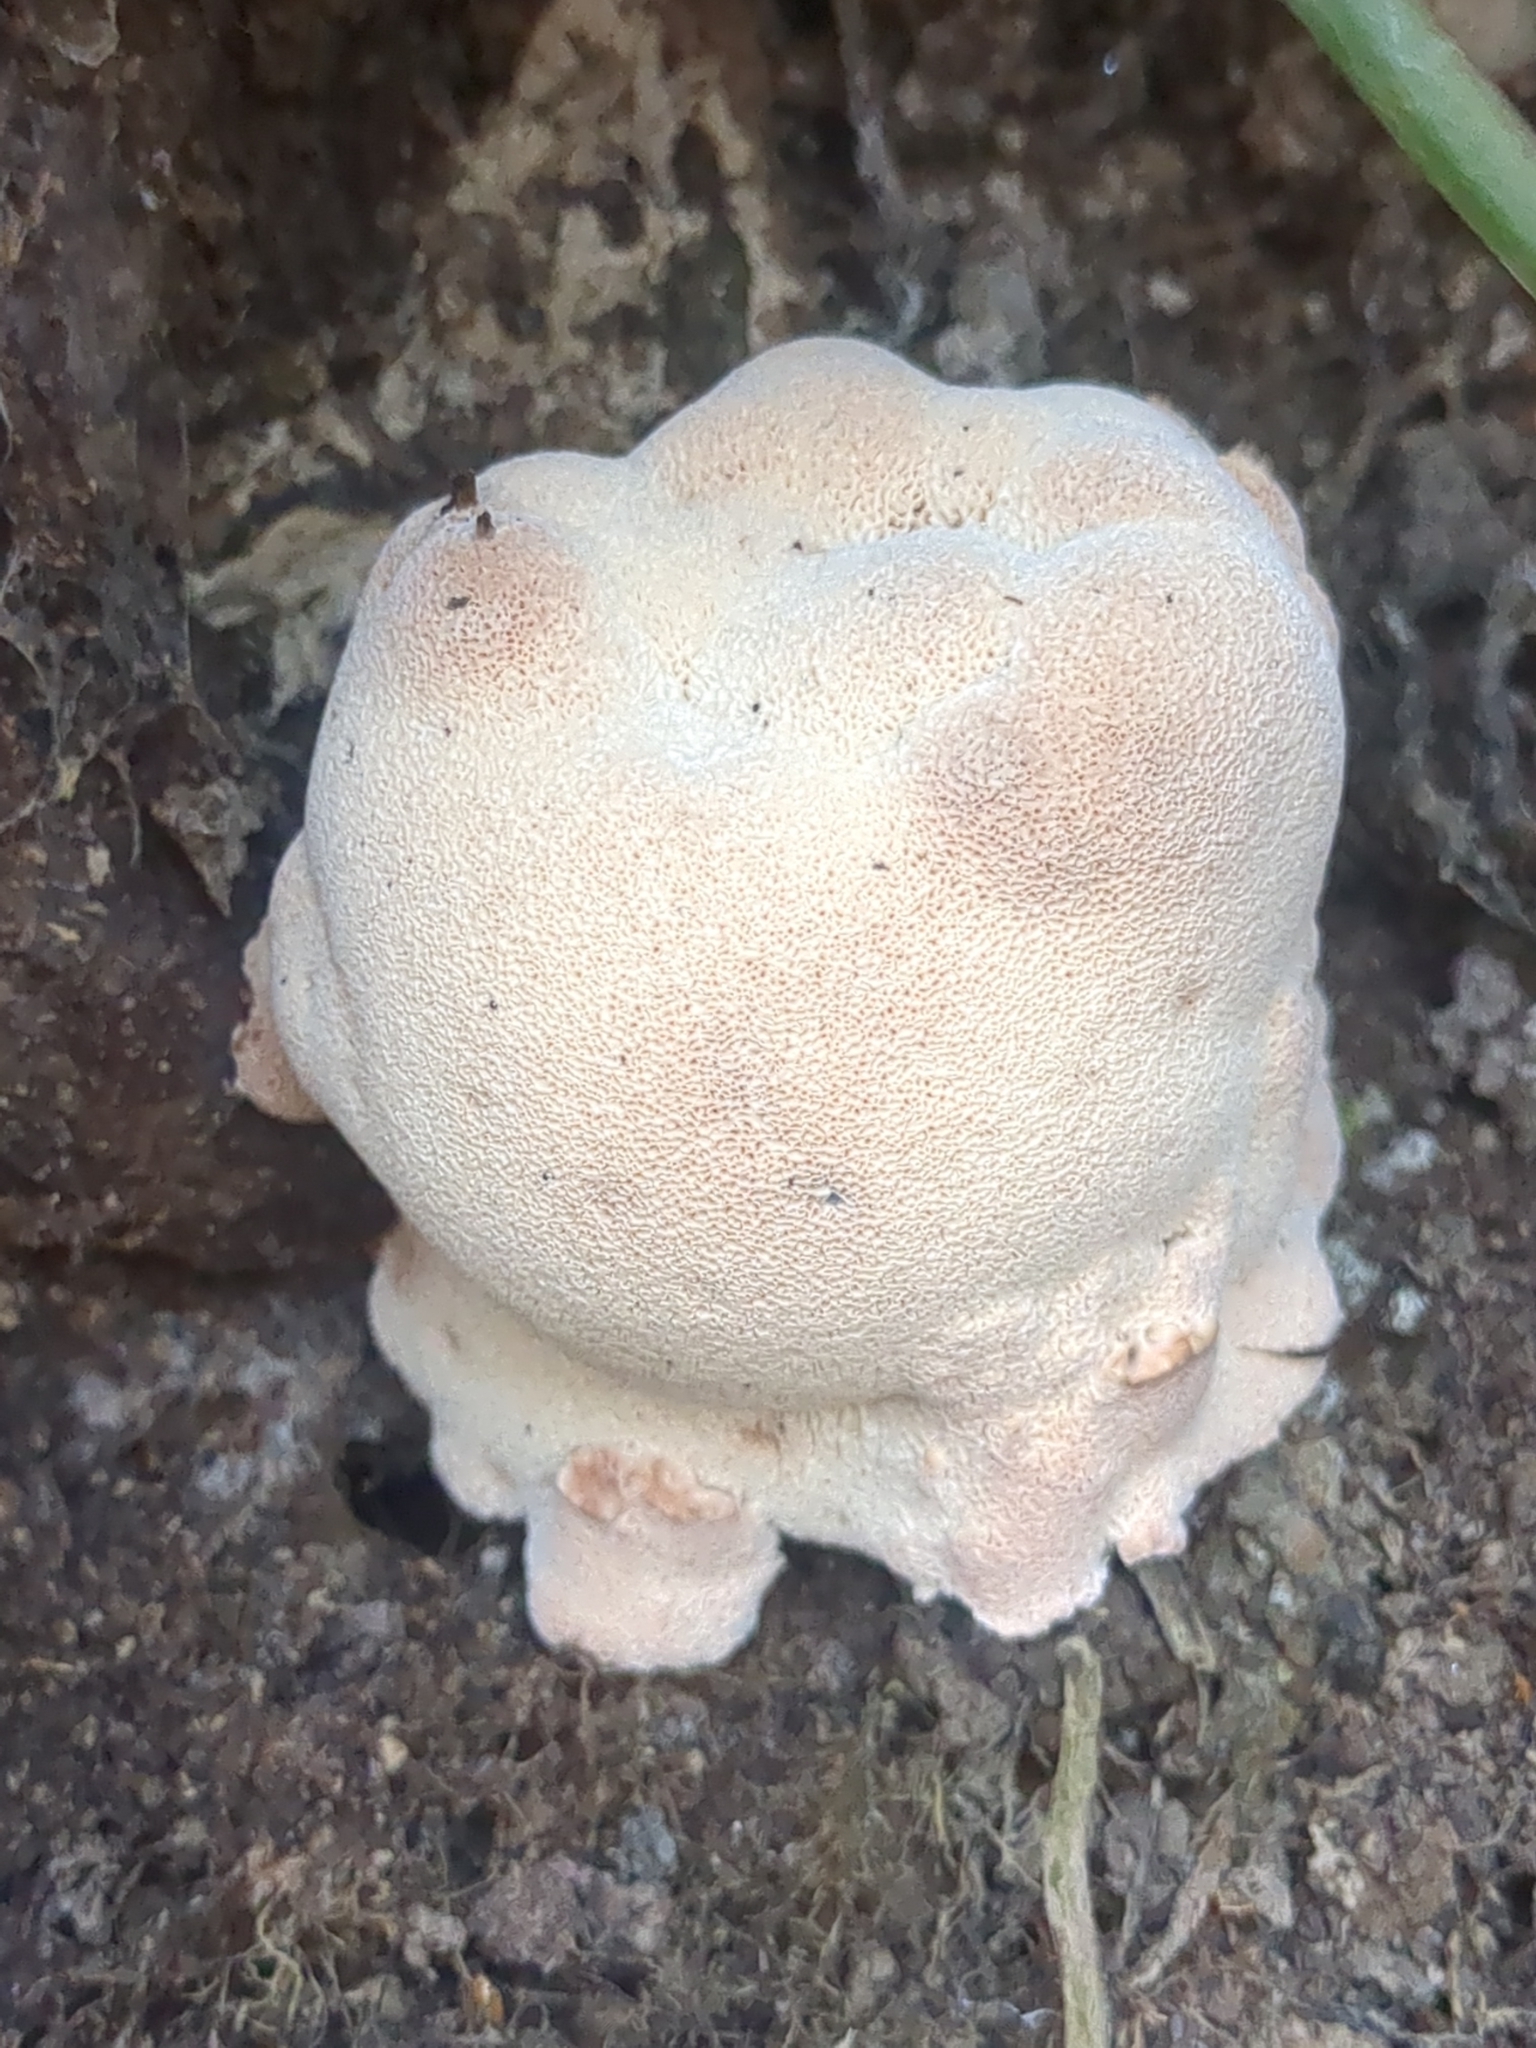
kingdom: Fungi
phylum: Basidiomycota
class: Agaricomycetes
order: Polyporales
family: Podoscyphaceae
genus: Abortiporus
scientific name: Abortiporus biennis
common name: Blushing rosette
